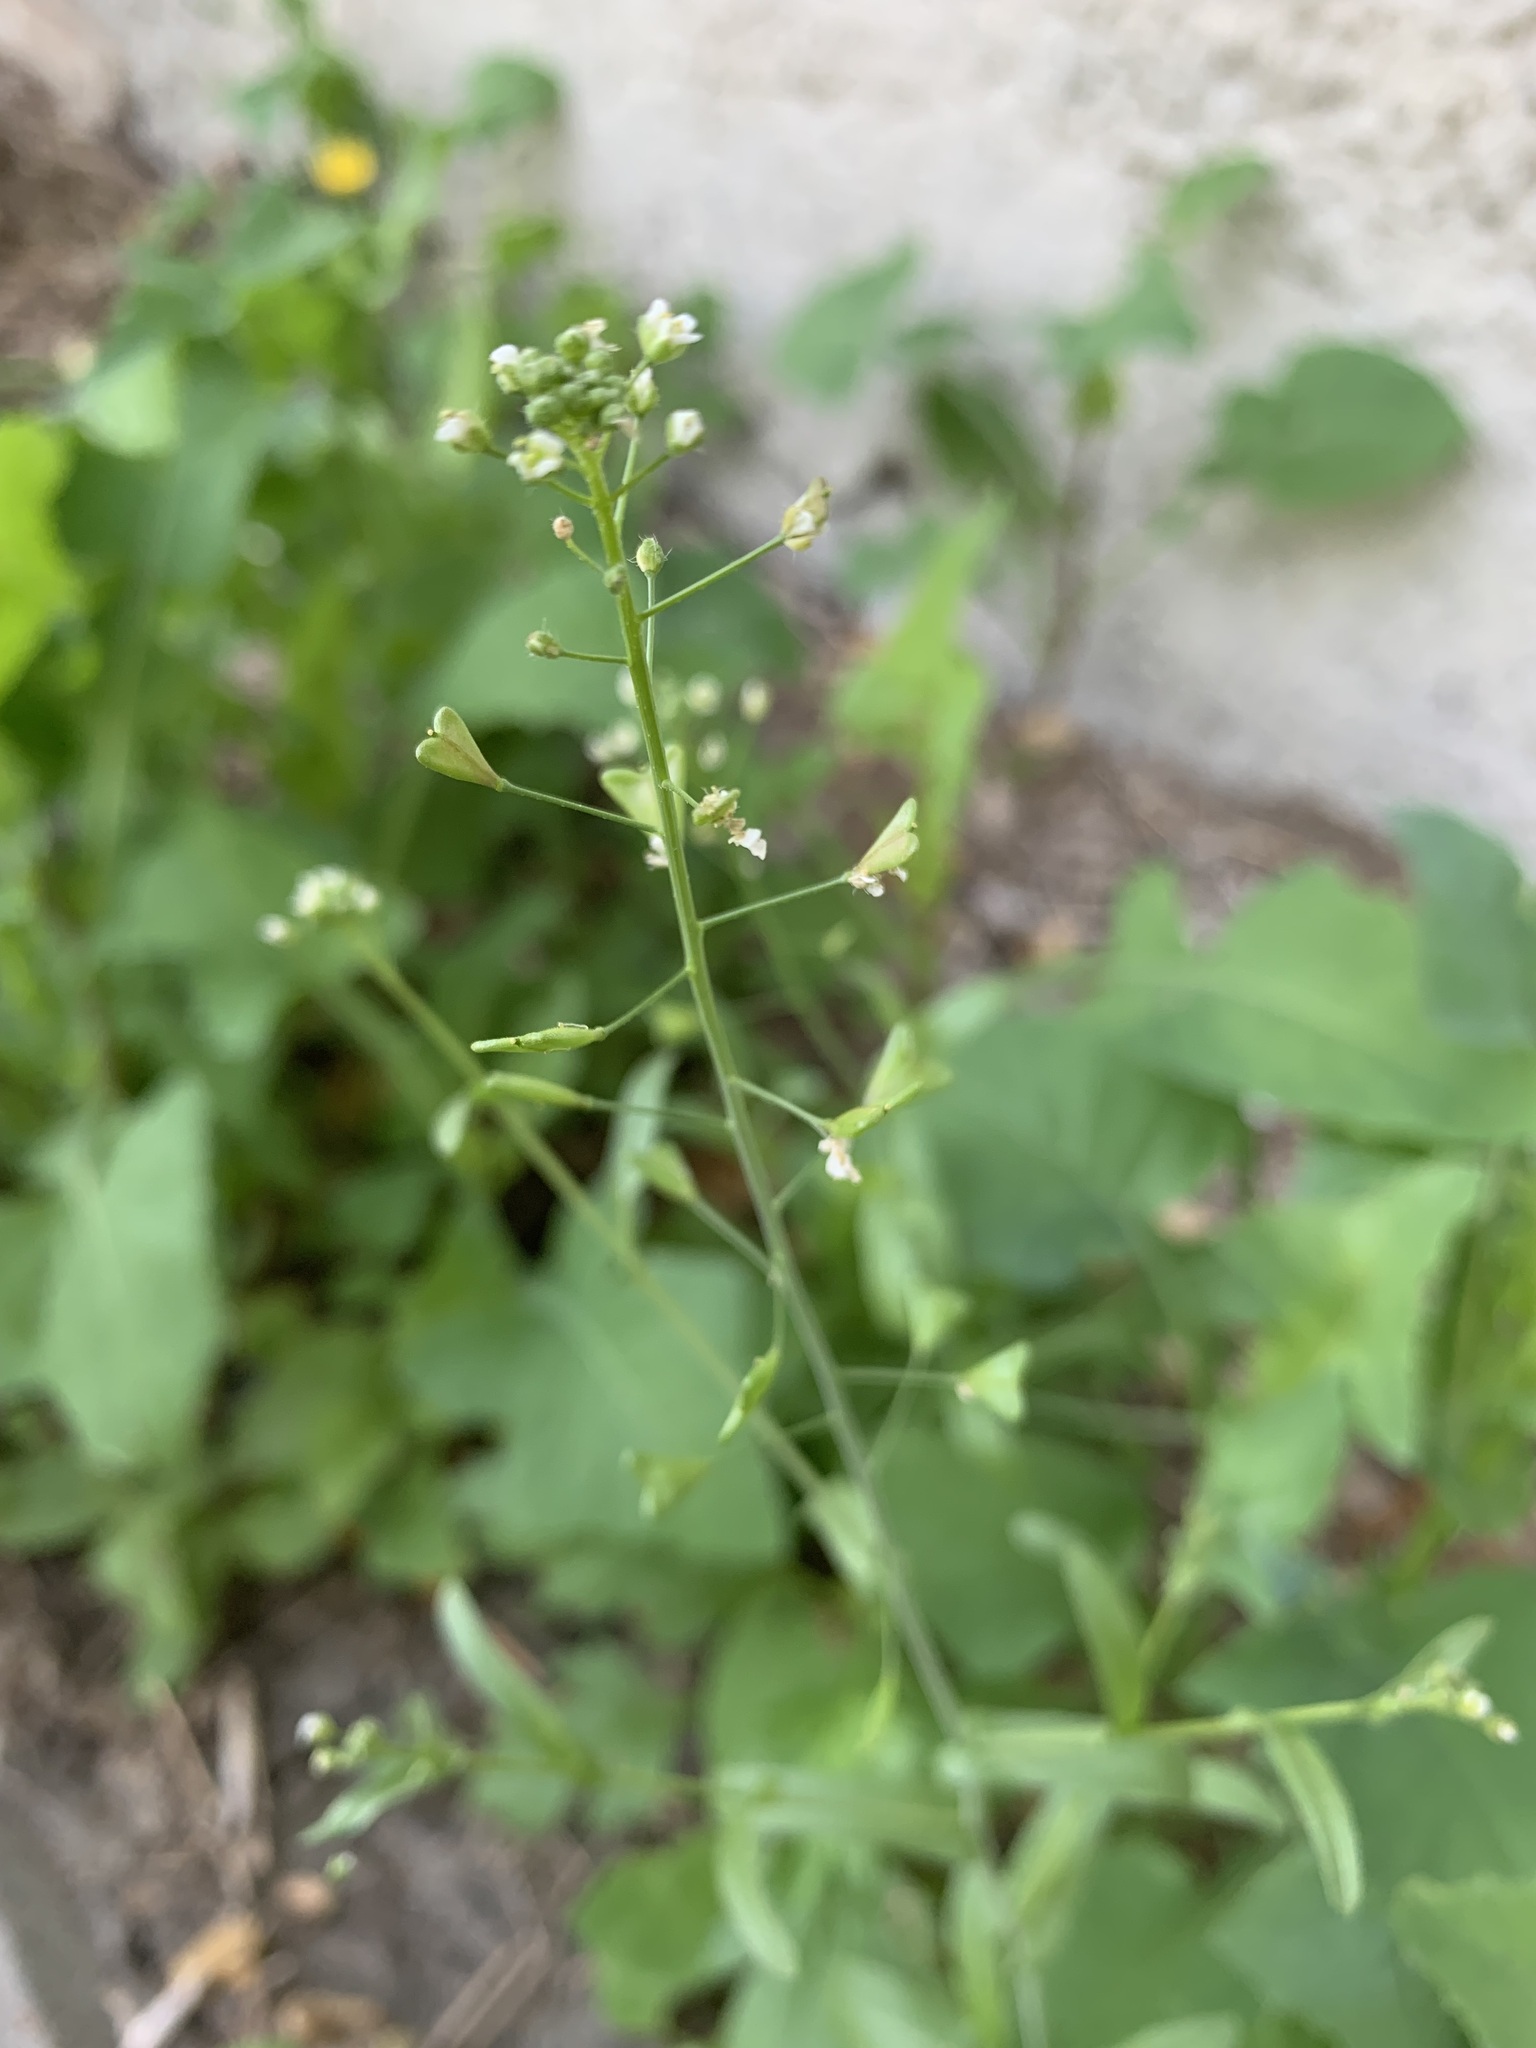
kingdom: Plantae
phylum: Tracheophyta
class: Magnoliopsida
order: Brassicales
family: Brassicaceae
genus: Capsella
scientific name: Capsella bursa-pastoris
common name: Shepherd's purse
